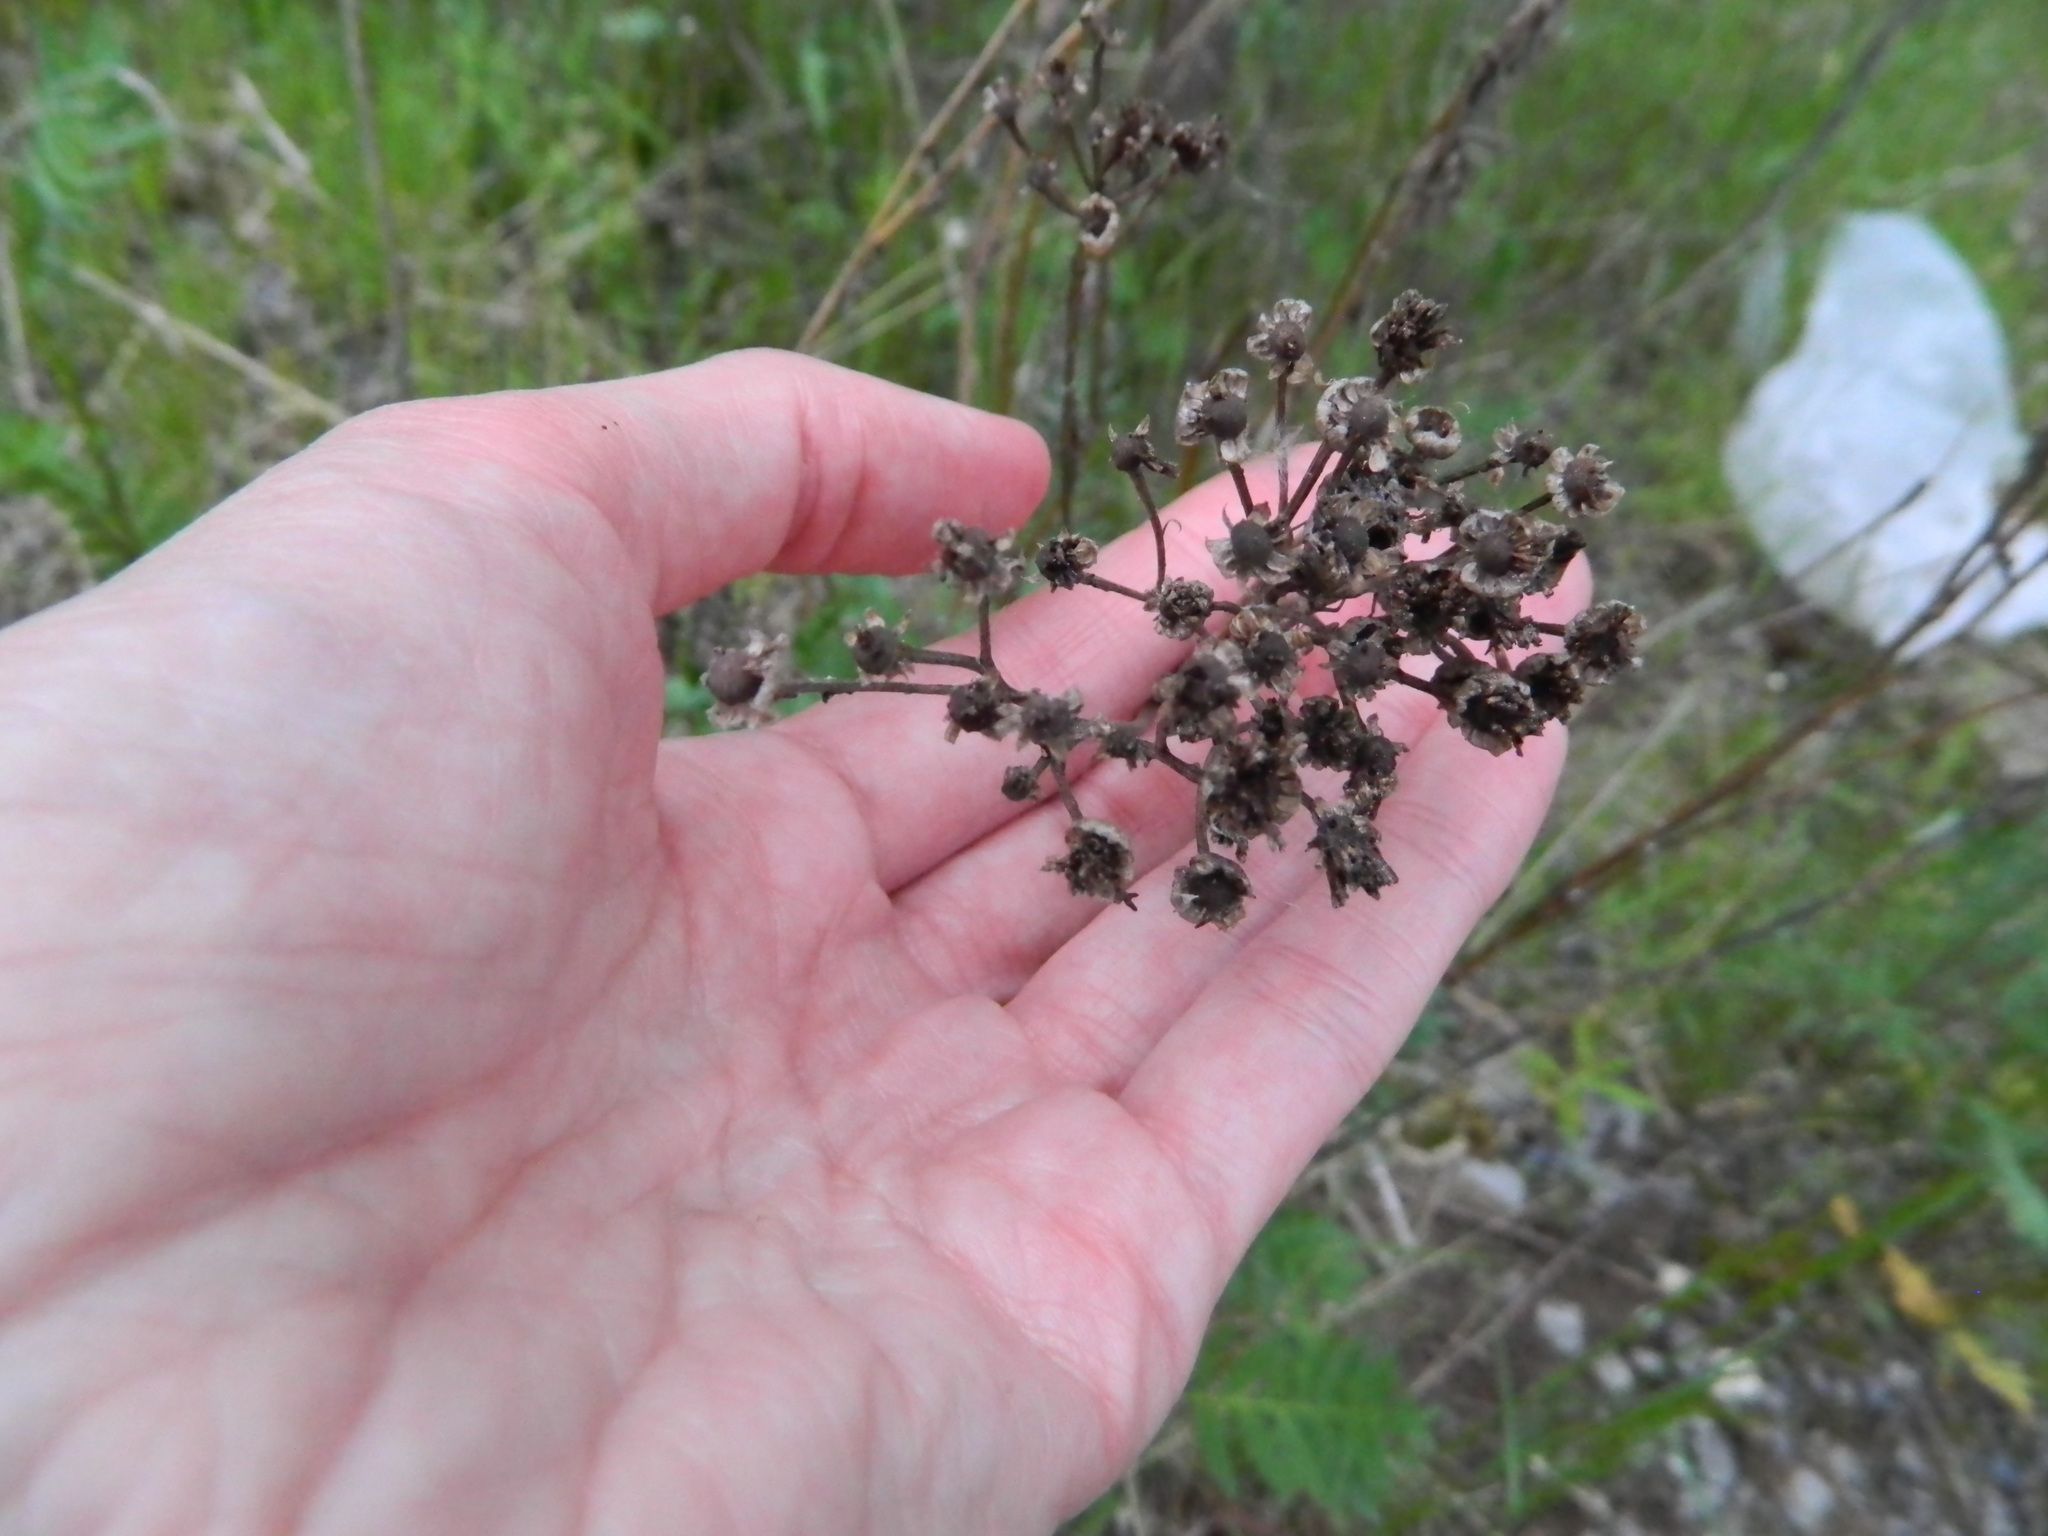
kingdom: Plantae
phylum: Tracheophyta
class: Magnoliopsida
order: Asterales
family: Asteraceae
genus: Tanacetum
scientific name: Tanacetum vulgare
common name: Common tansy
